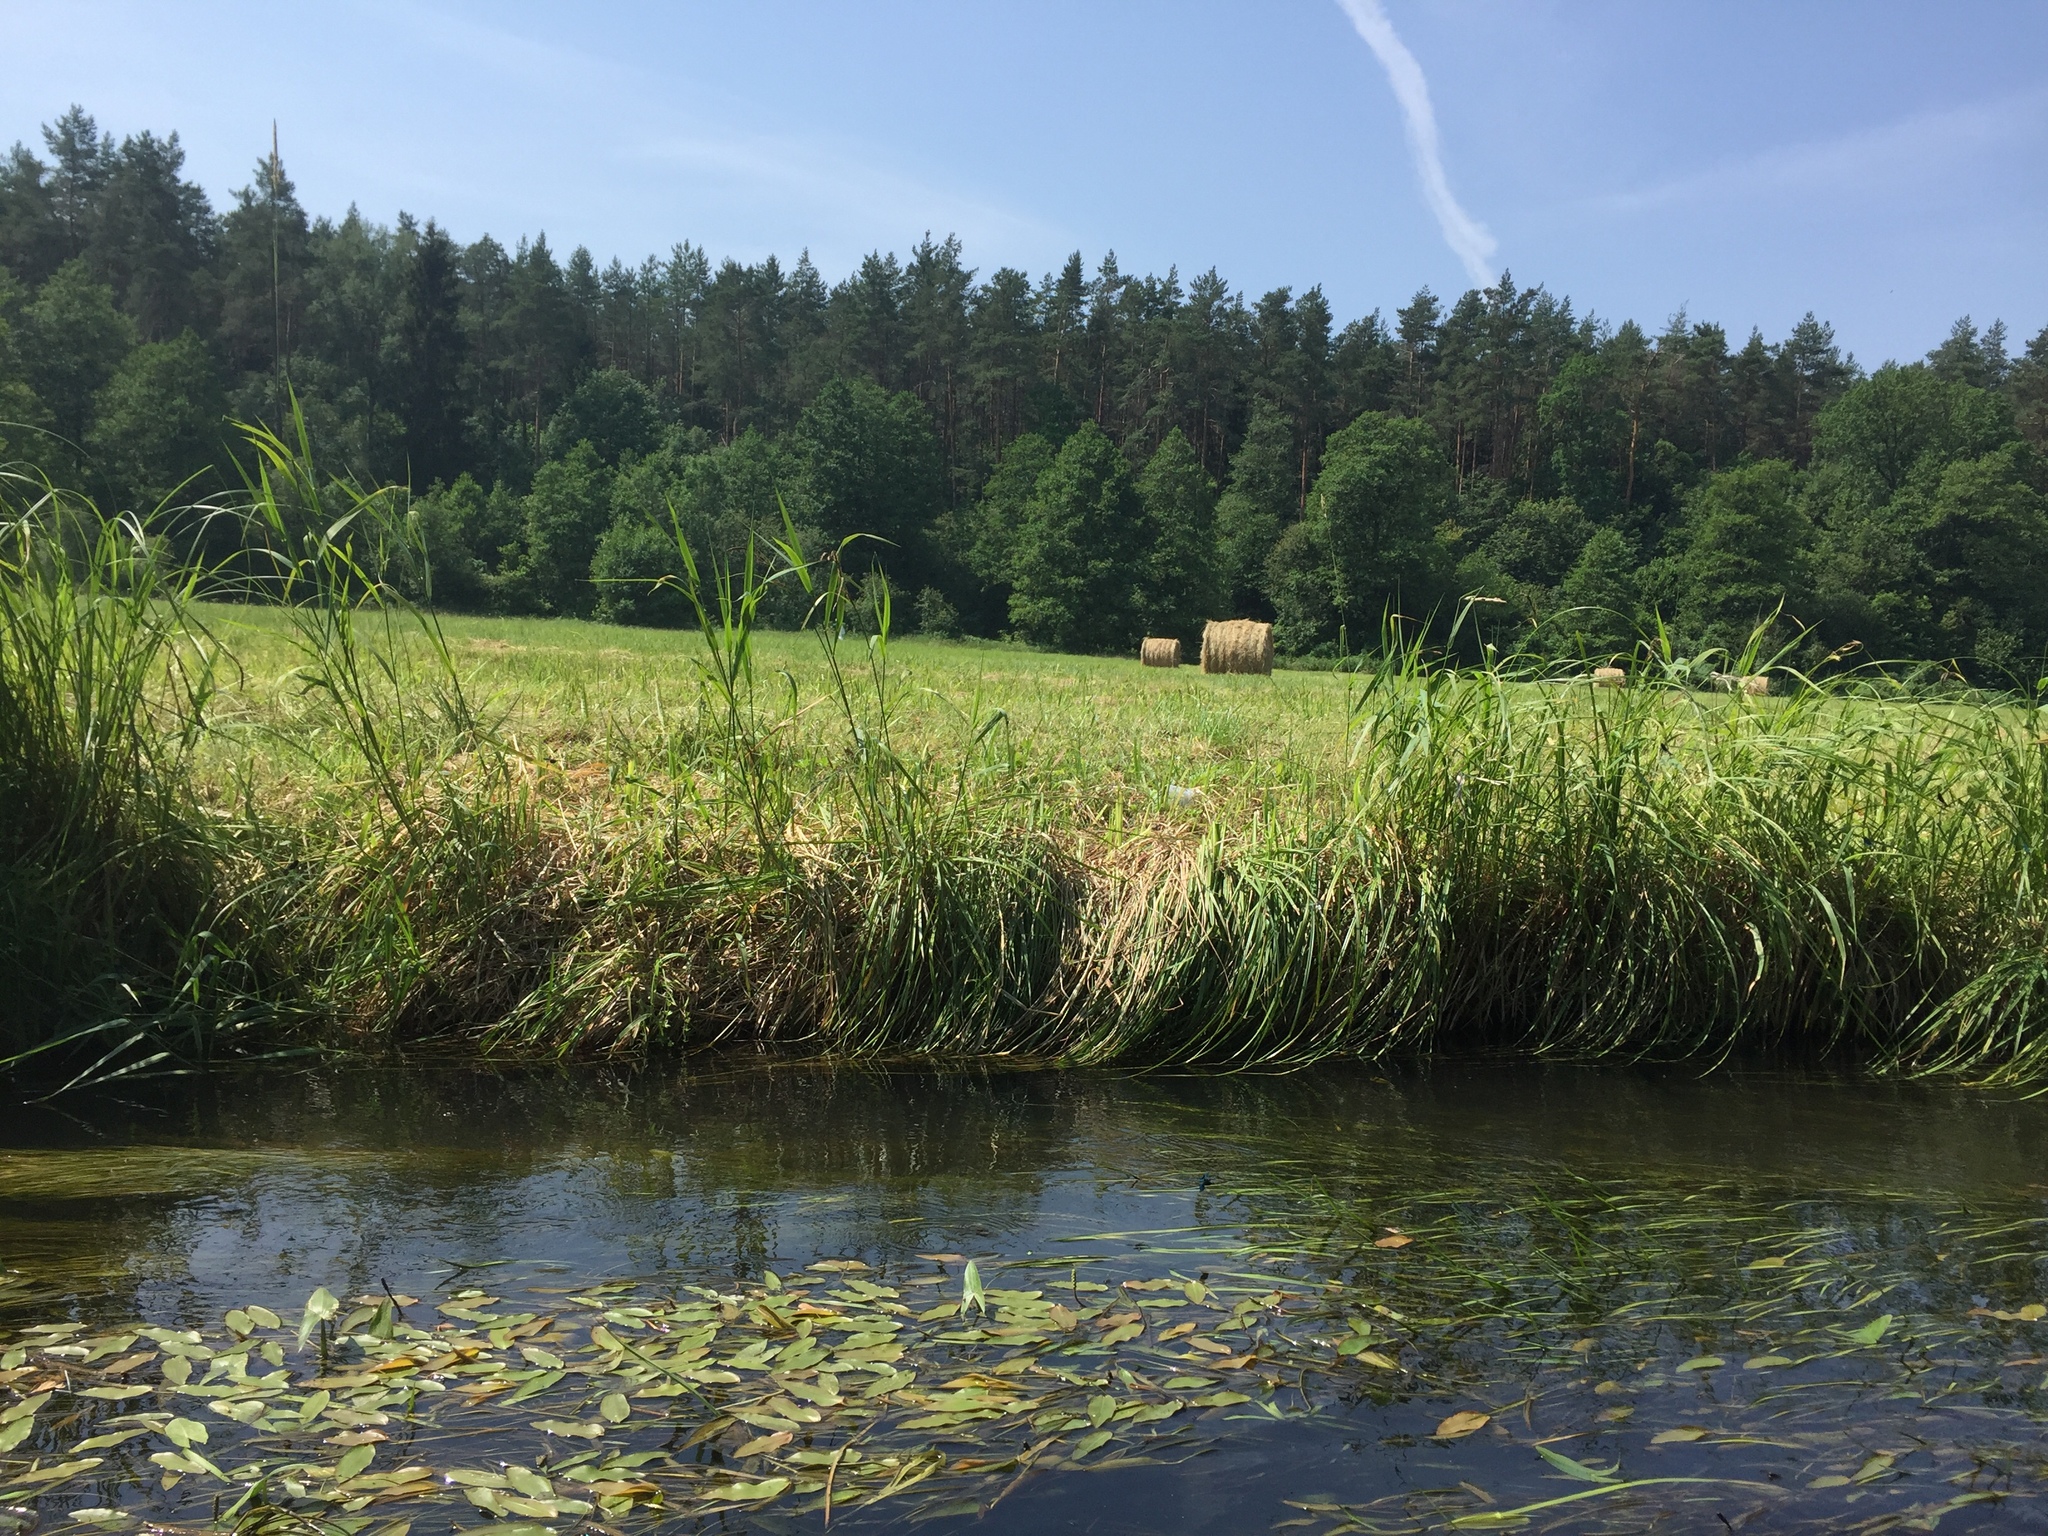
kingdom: Plantae
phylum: Tracheophyta
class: Liliopsida
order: Alismatales
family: Potamogetonaceae
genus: Potamogeton
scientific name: Potamogeton nodosus
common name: Loddon pondweed
